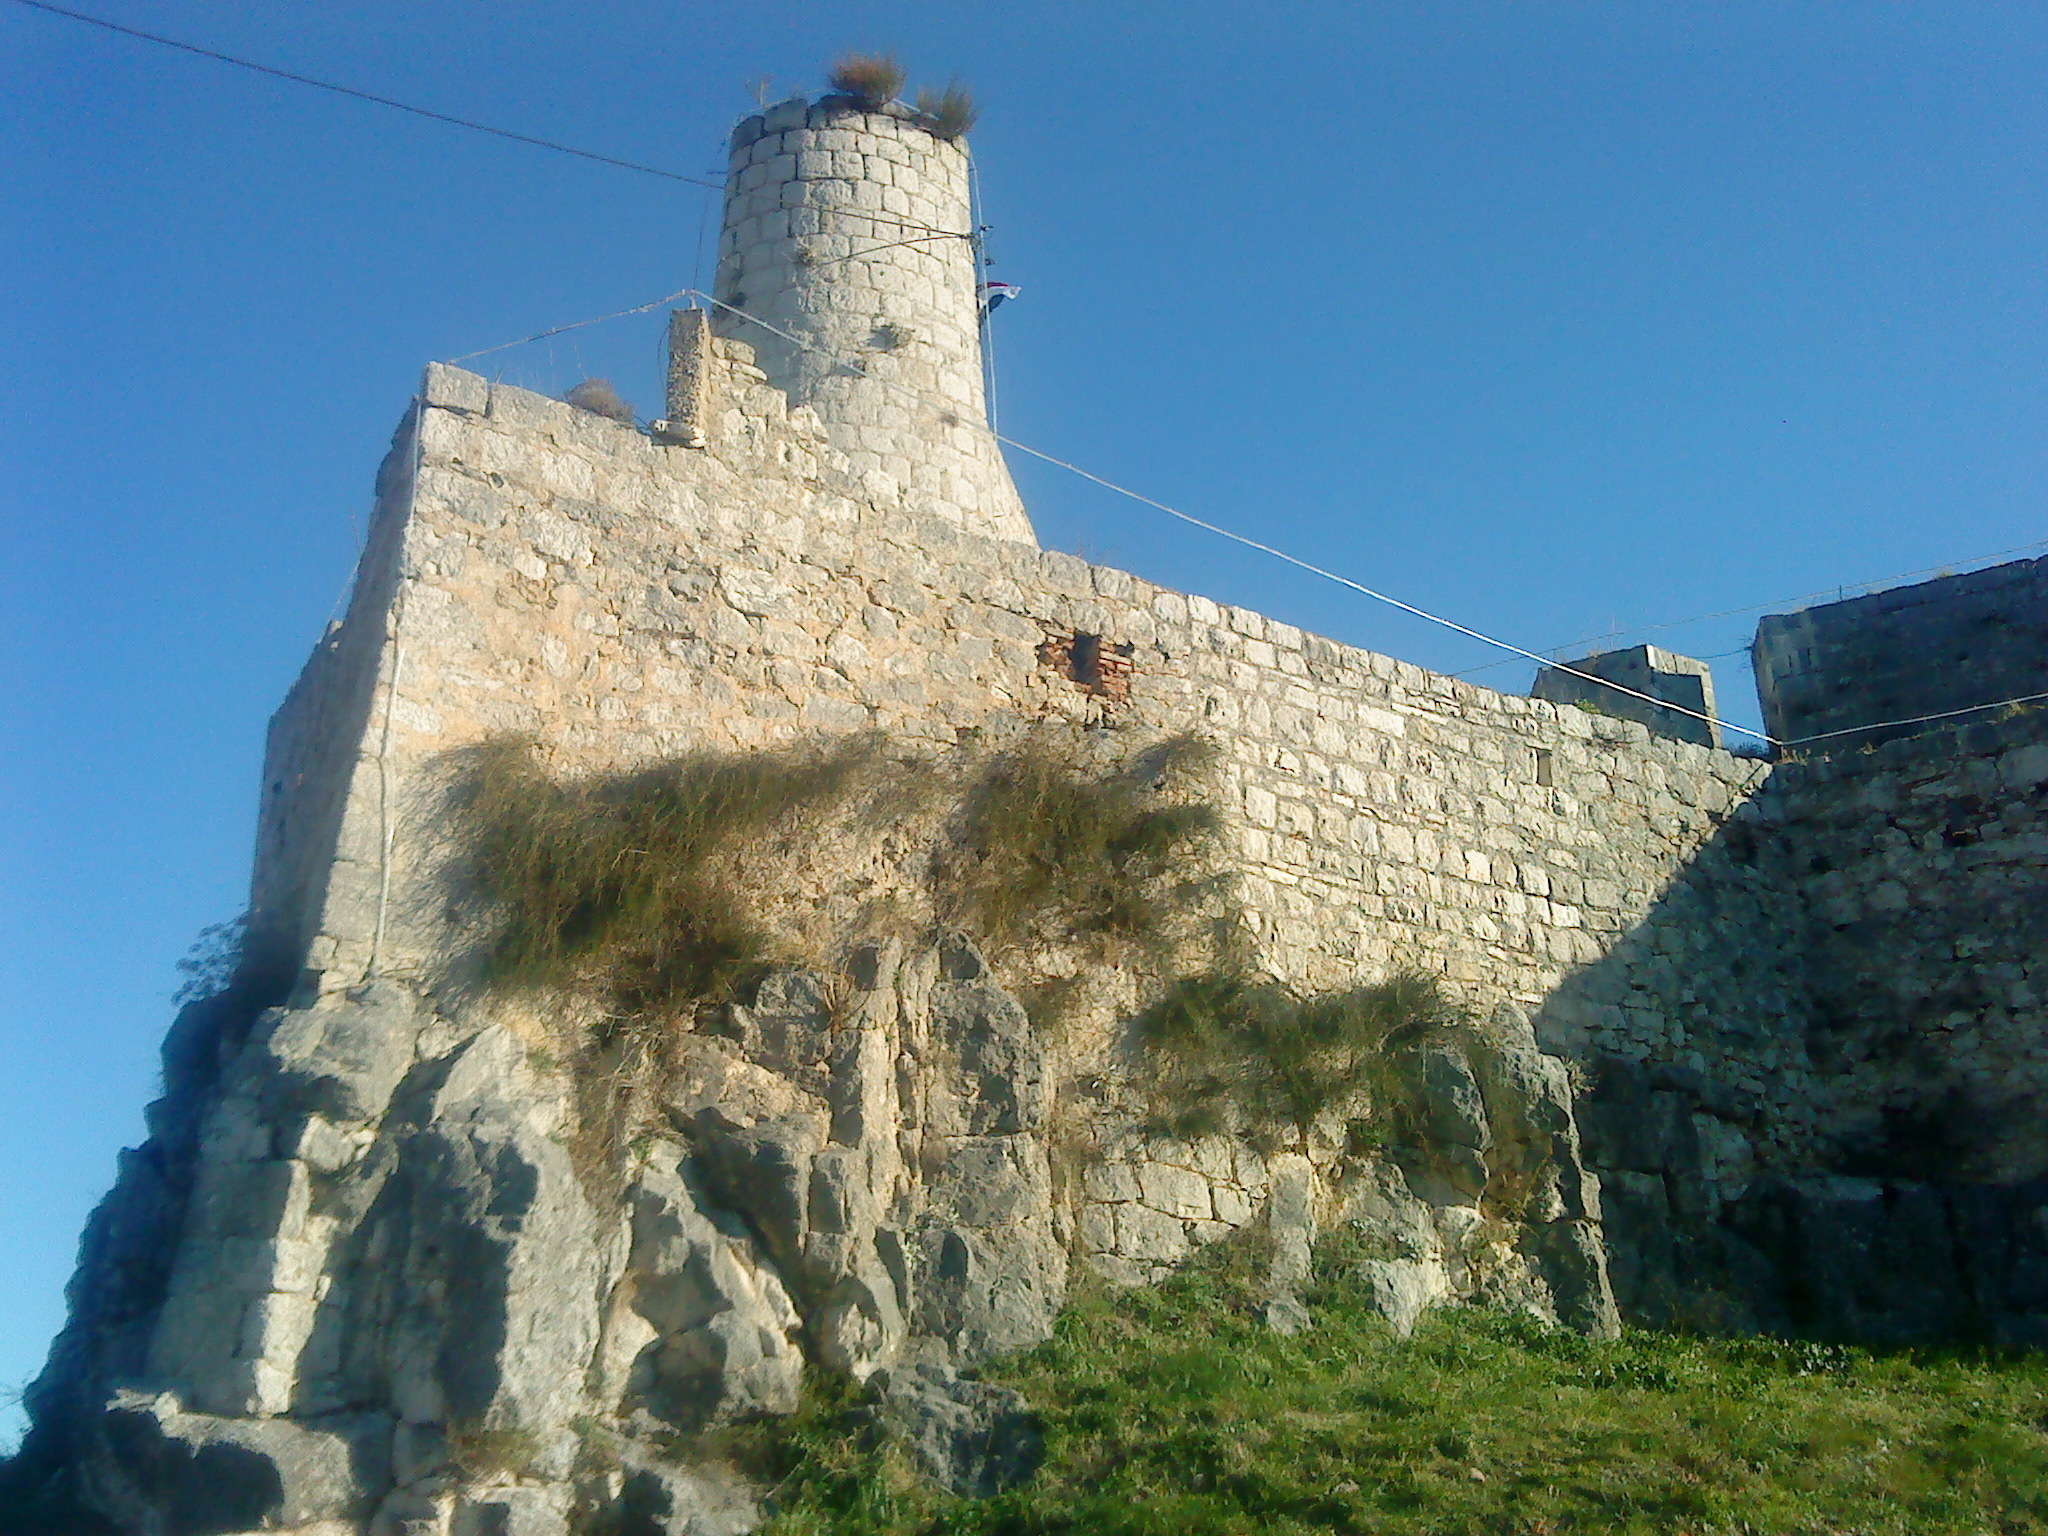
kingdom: Plantae
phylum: Tracheophyta
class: Gnetopsida
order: Ephedrales
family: Ephedraceae
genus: Ephedra
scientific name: Ephedra foeminea
